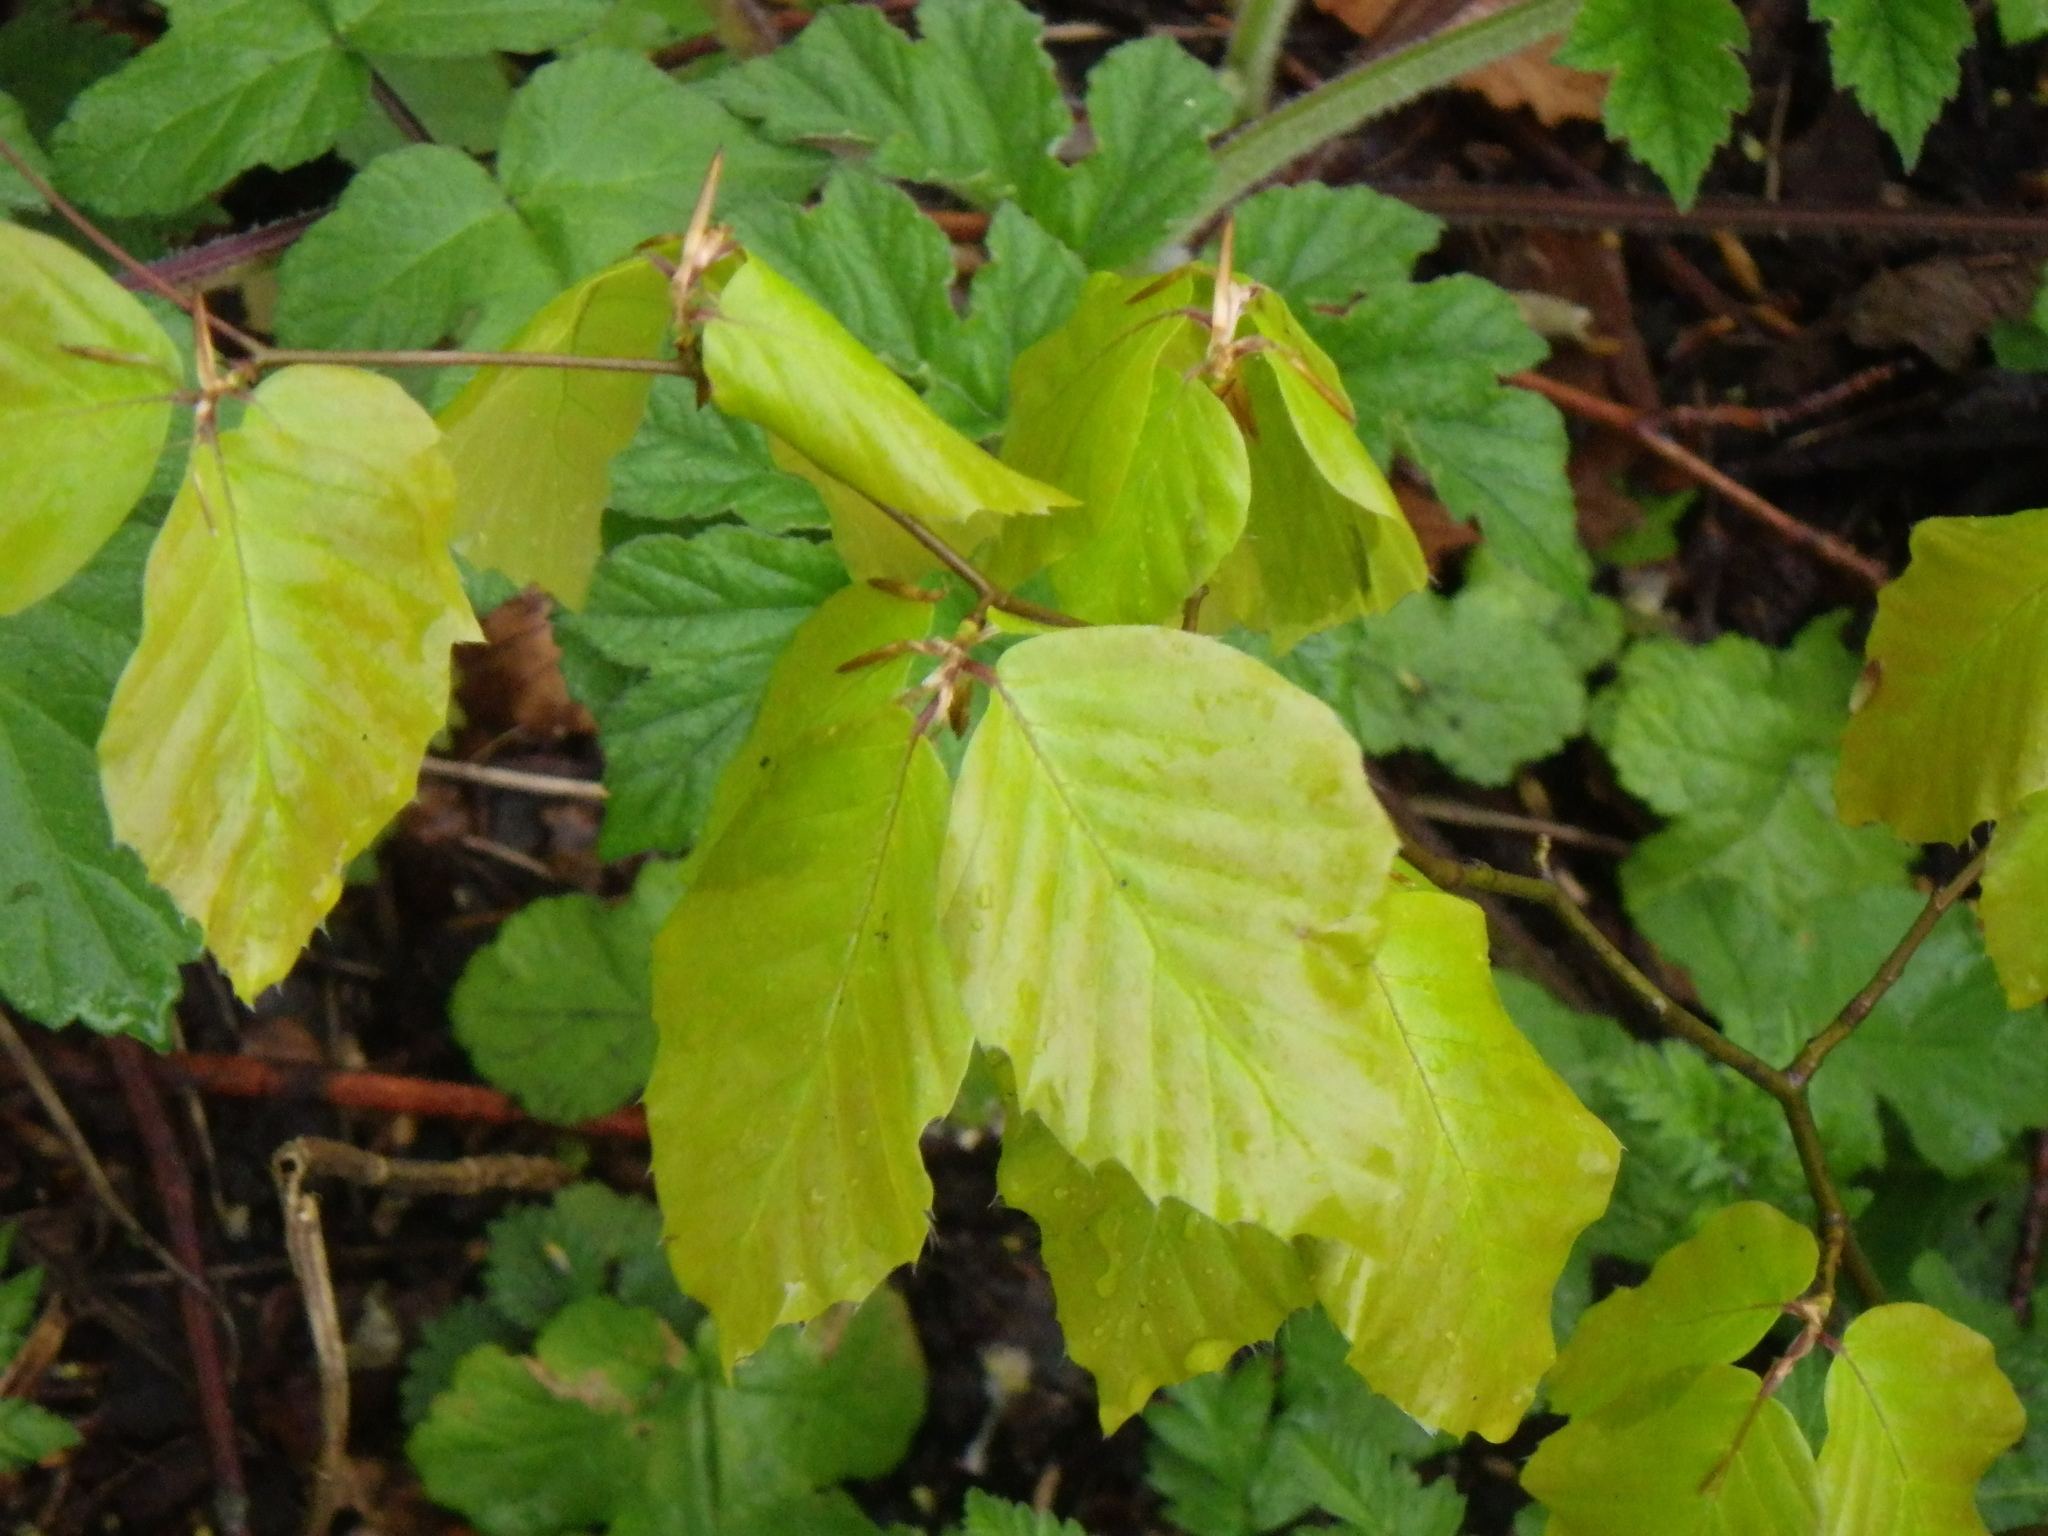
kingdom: Plantae
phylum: Tracheophyta
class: Magnoliopsida
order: Fagales
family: Fagaceae
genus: Fagus
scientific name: Fagus sylvatica
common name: Beech
